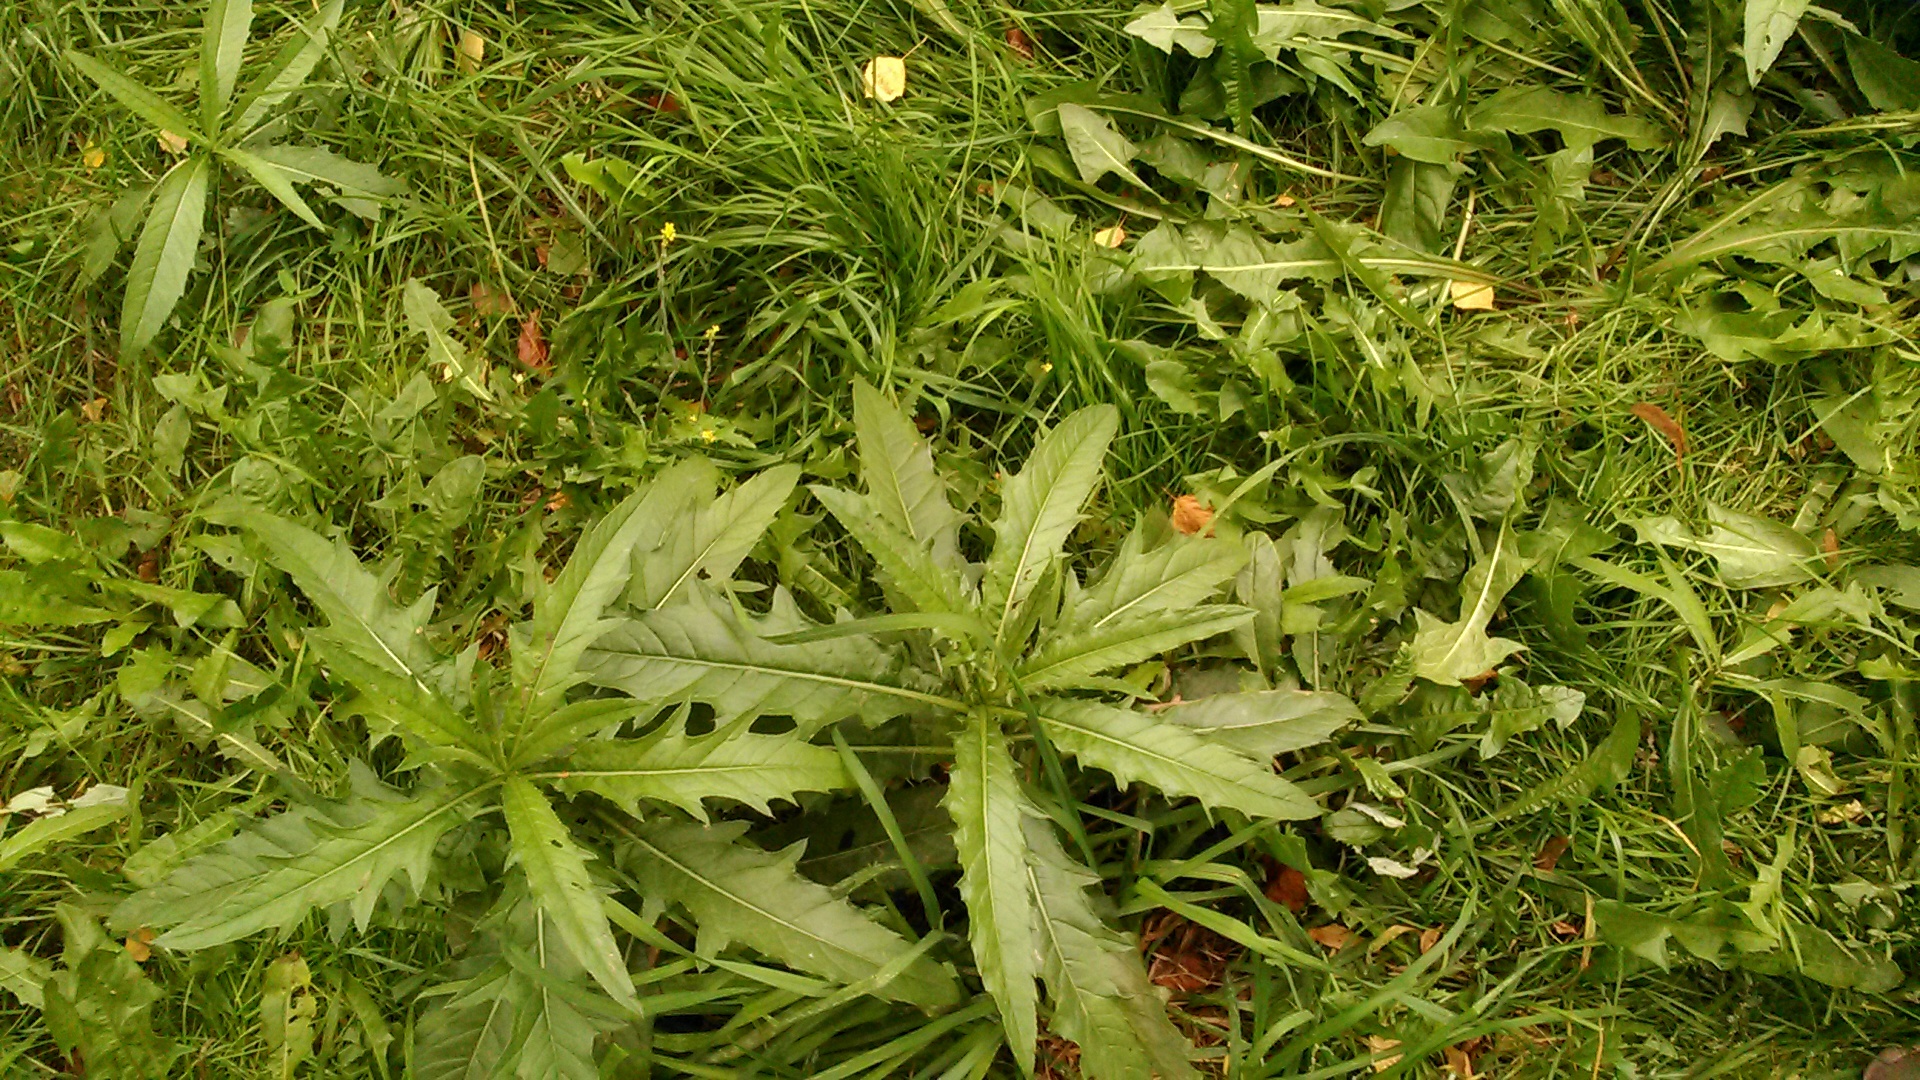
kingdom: Plantae
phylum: Tracheophyta
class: Magnoliopsida
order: Asterales
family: Asteraceae
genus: Cirsium
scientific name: Cirsium arvense
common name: Creeping thistle
